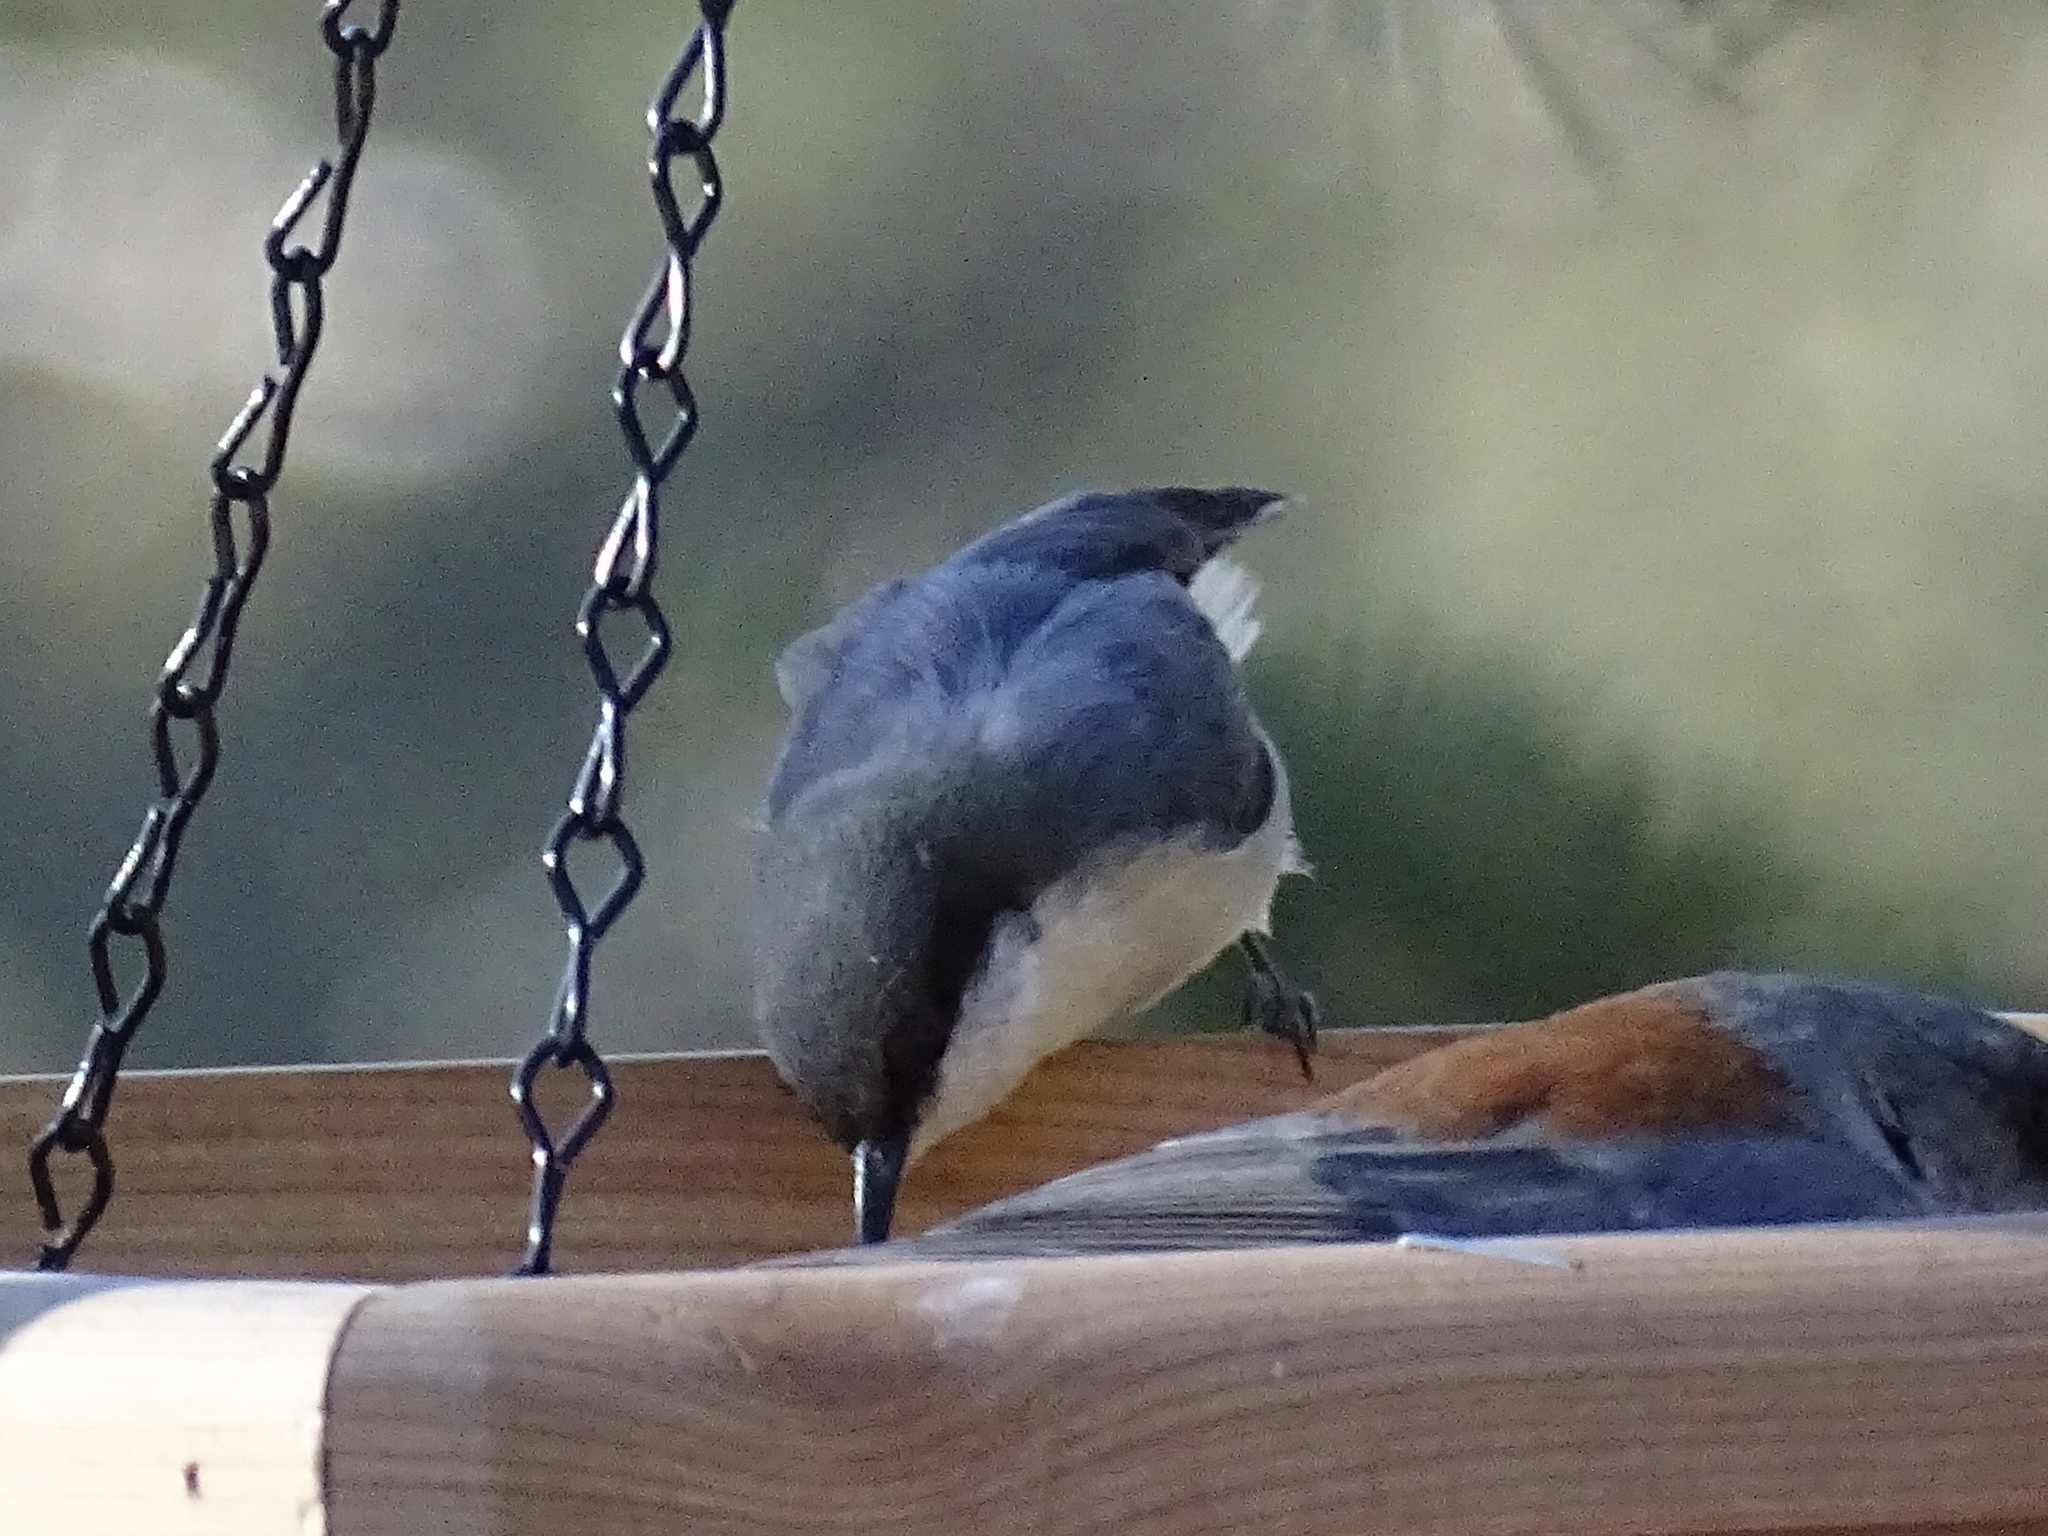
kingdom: Animalia
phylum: Chordata
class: Aves
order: Passeriformes
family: Sittidae
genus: Sitta
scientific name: Sitta pygmaea
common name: Pygmy nuthatch
